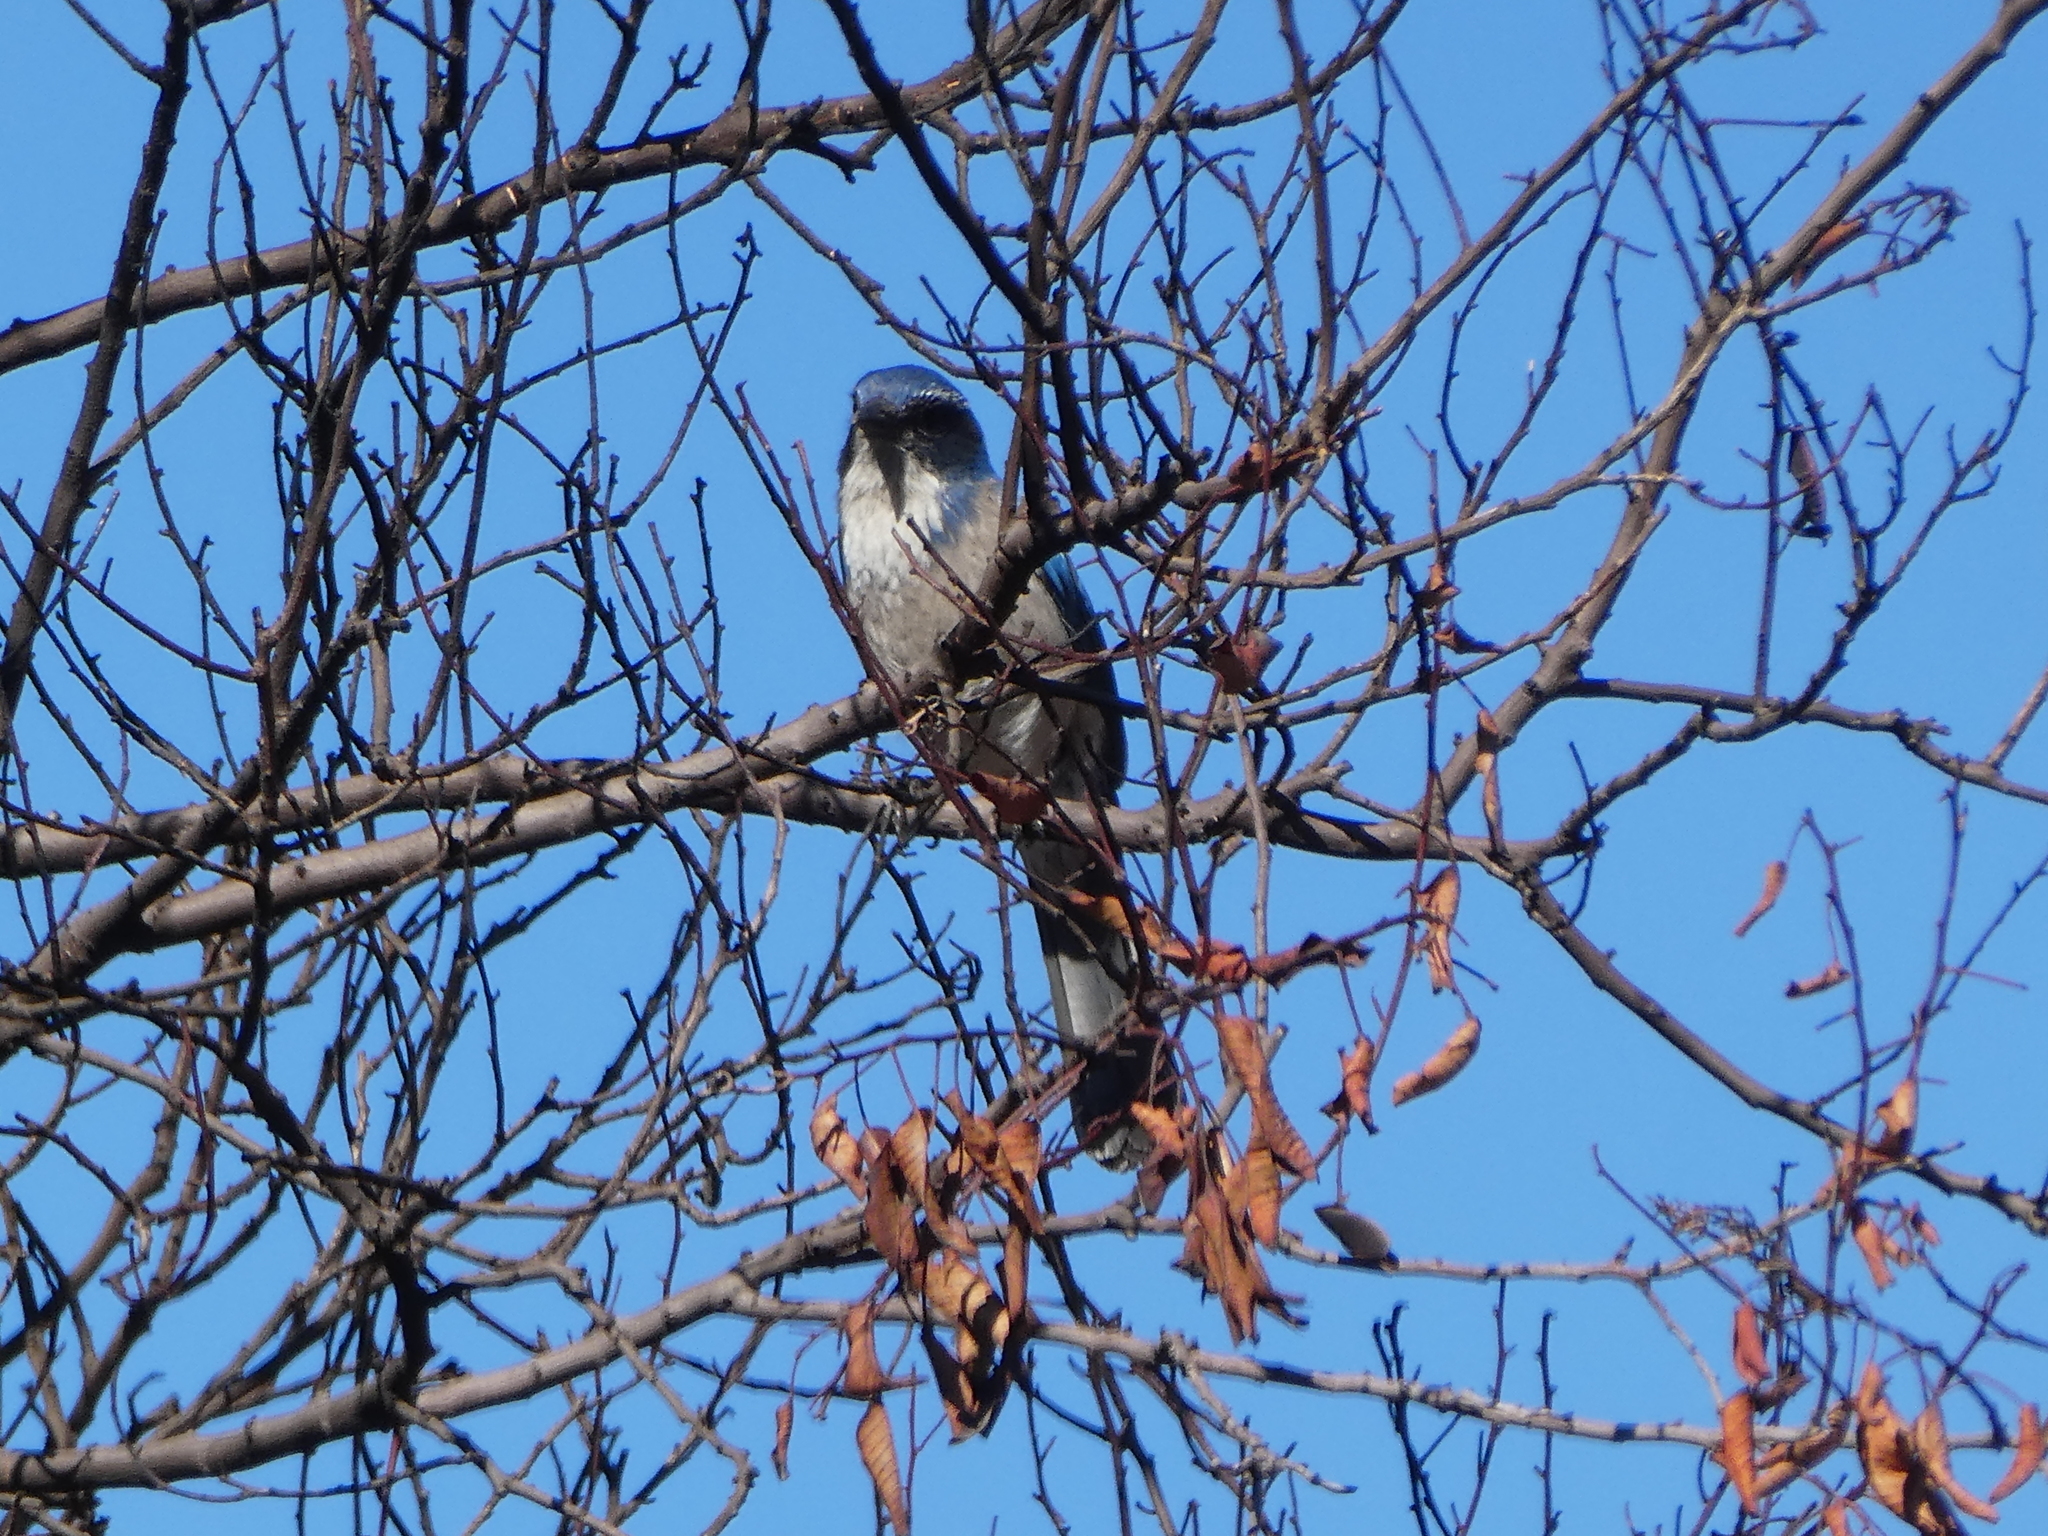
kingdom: Animalia
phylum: Chordata
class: Aves
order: Passeriformes
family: Corvidae
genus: Aphelocoma
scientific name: Aphelocoma californica
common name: California scrub-jay
